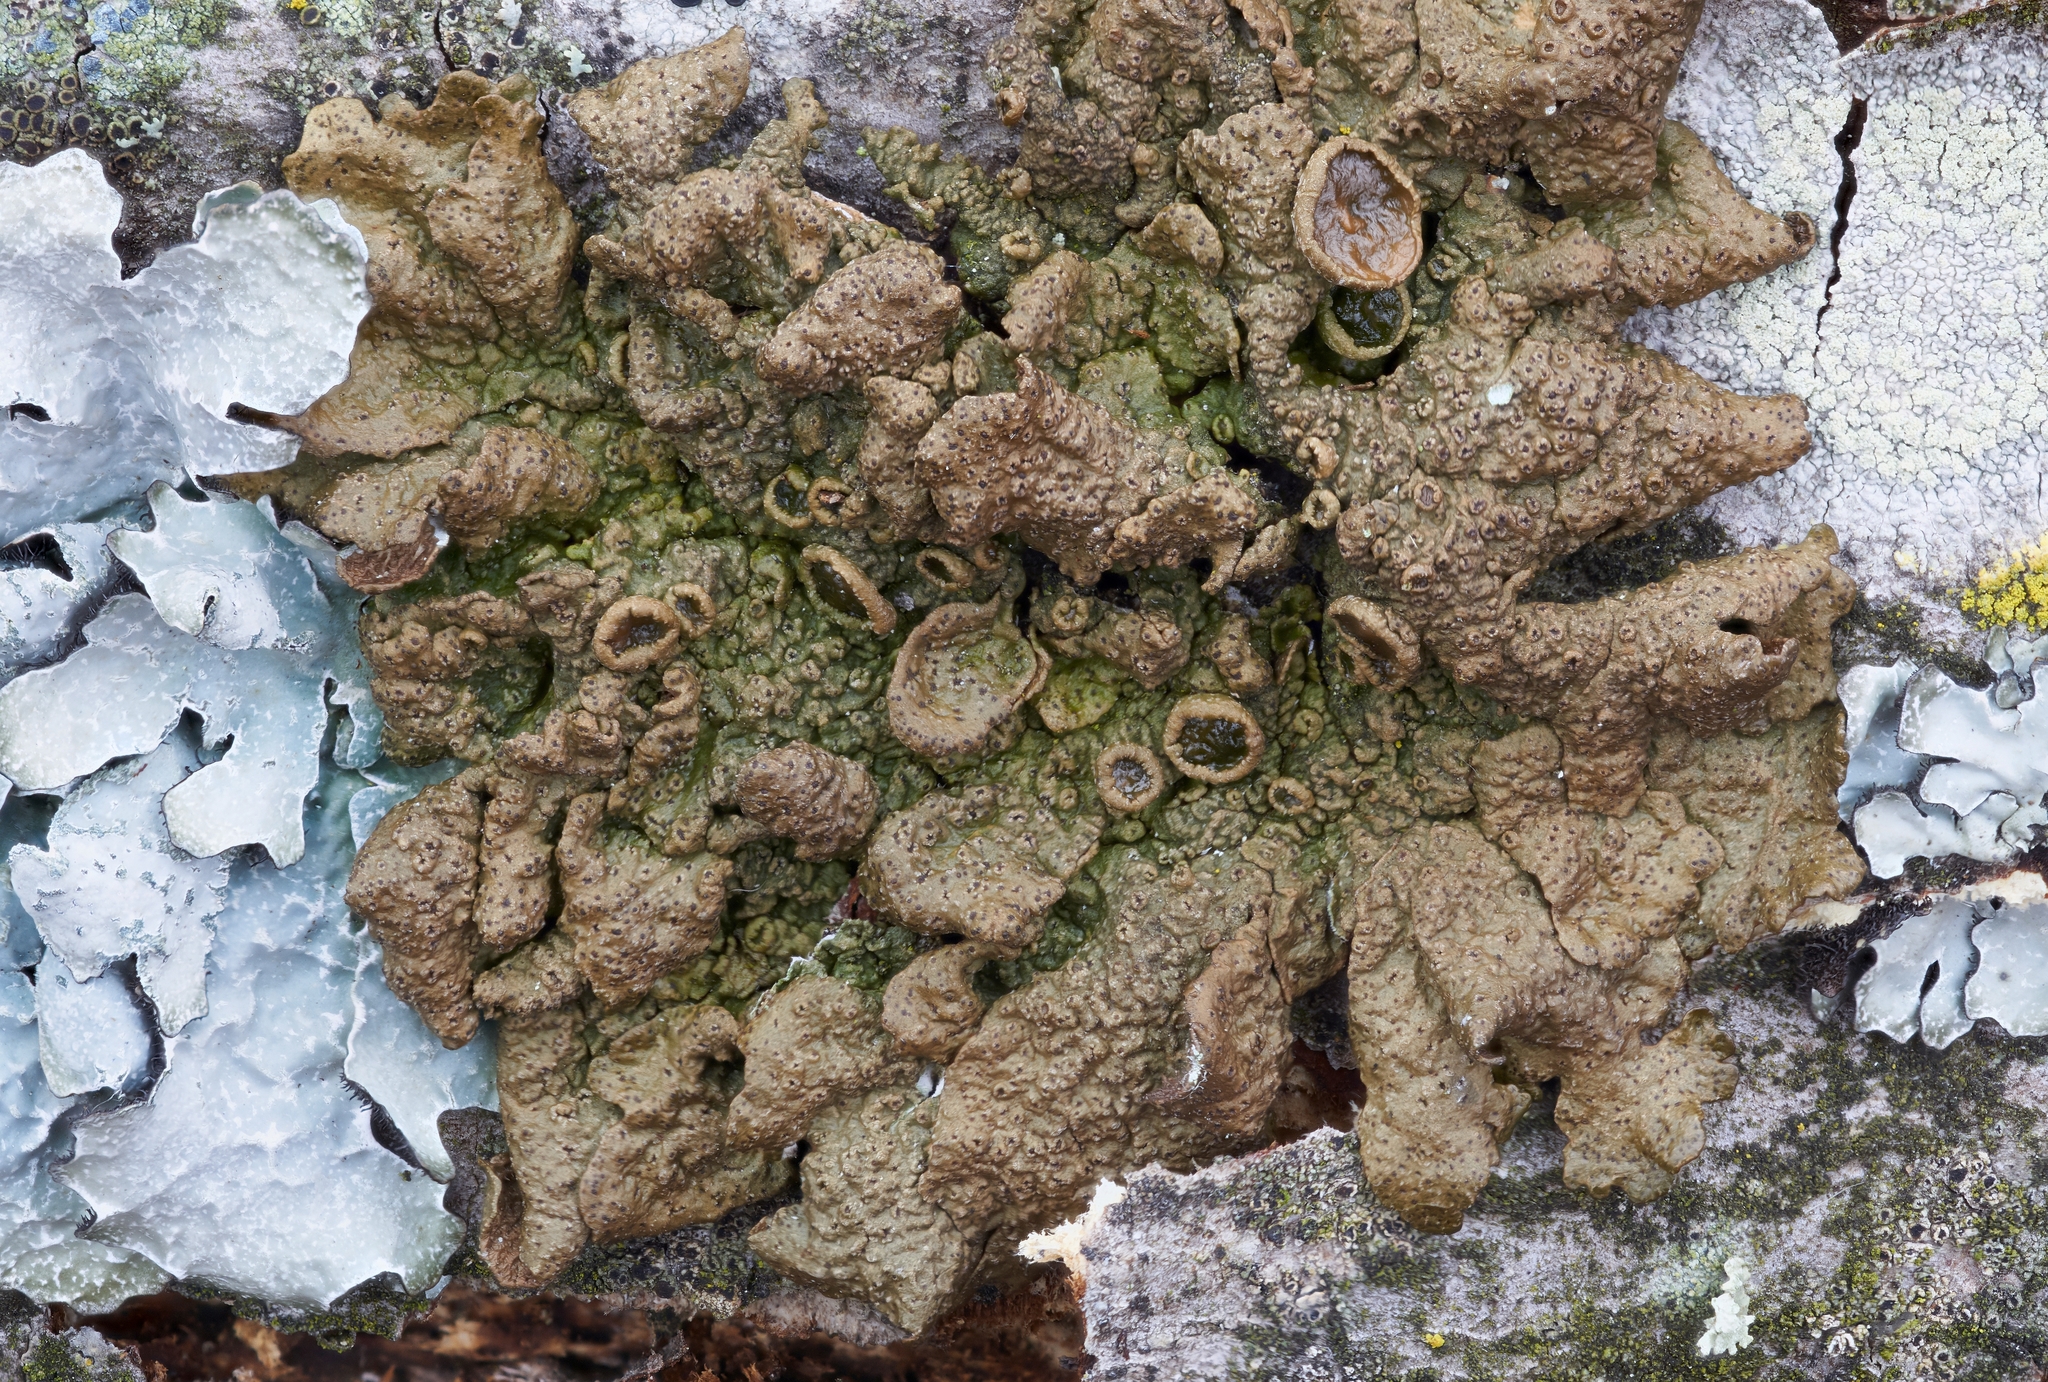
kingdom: Fungi
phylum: Ascomycota
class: Lecanoromycetes
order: Lecanorales
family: Parmeliaceae
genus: Melanohalea
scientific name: Melanohalea olivacea
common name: Spotted camouflage lichen
